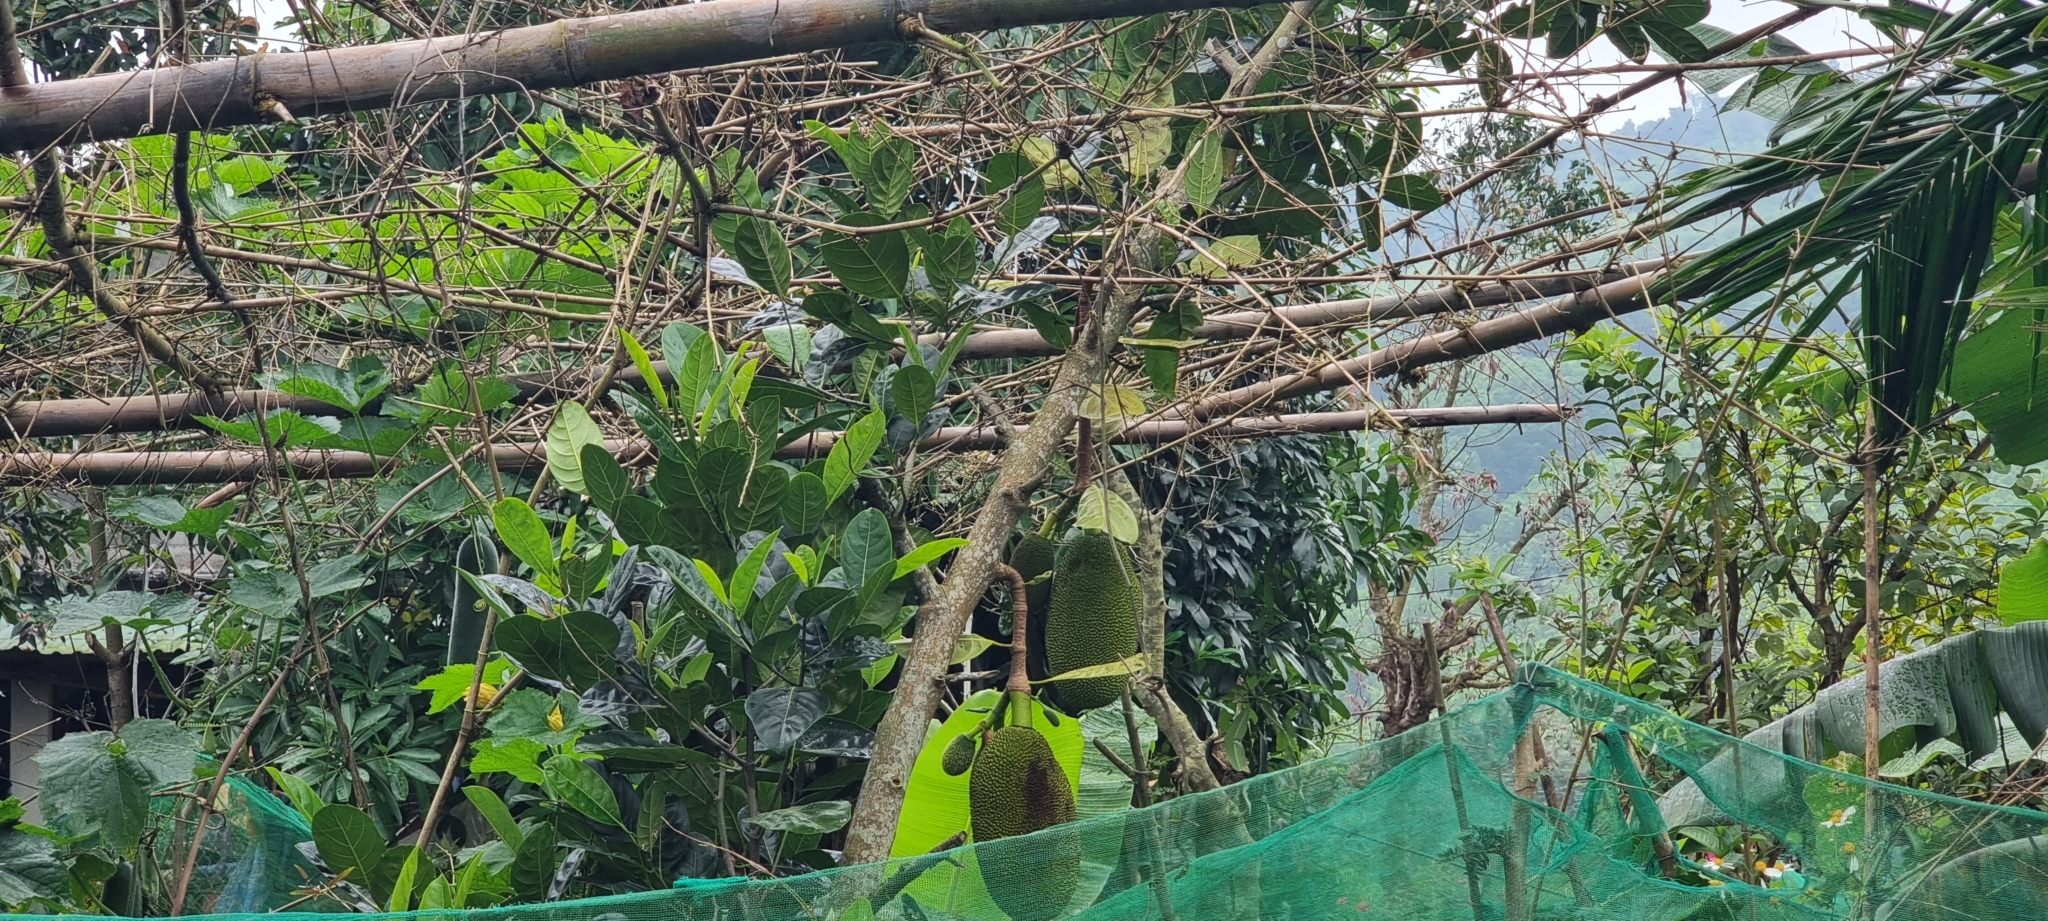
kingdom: Plantae
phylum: Tracheophyta
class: Magnoliopsida
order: Rosales
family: Moraceae
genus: Artocarpus
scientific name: Artocarpus heterophyllus
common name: Jackfruit
